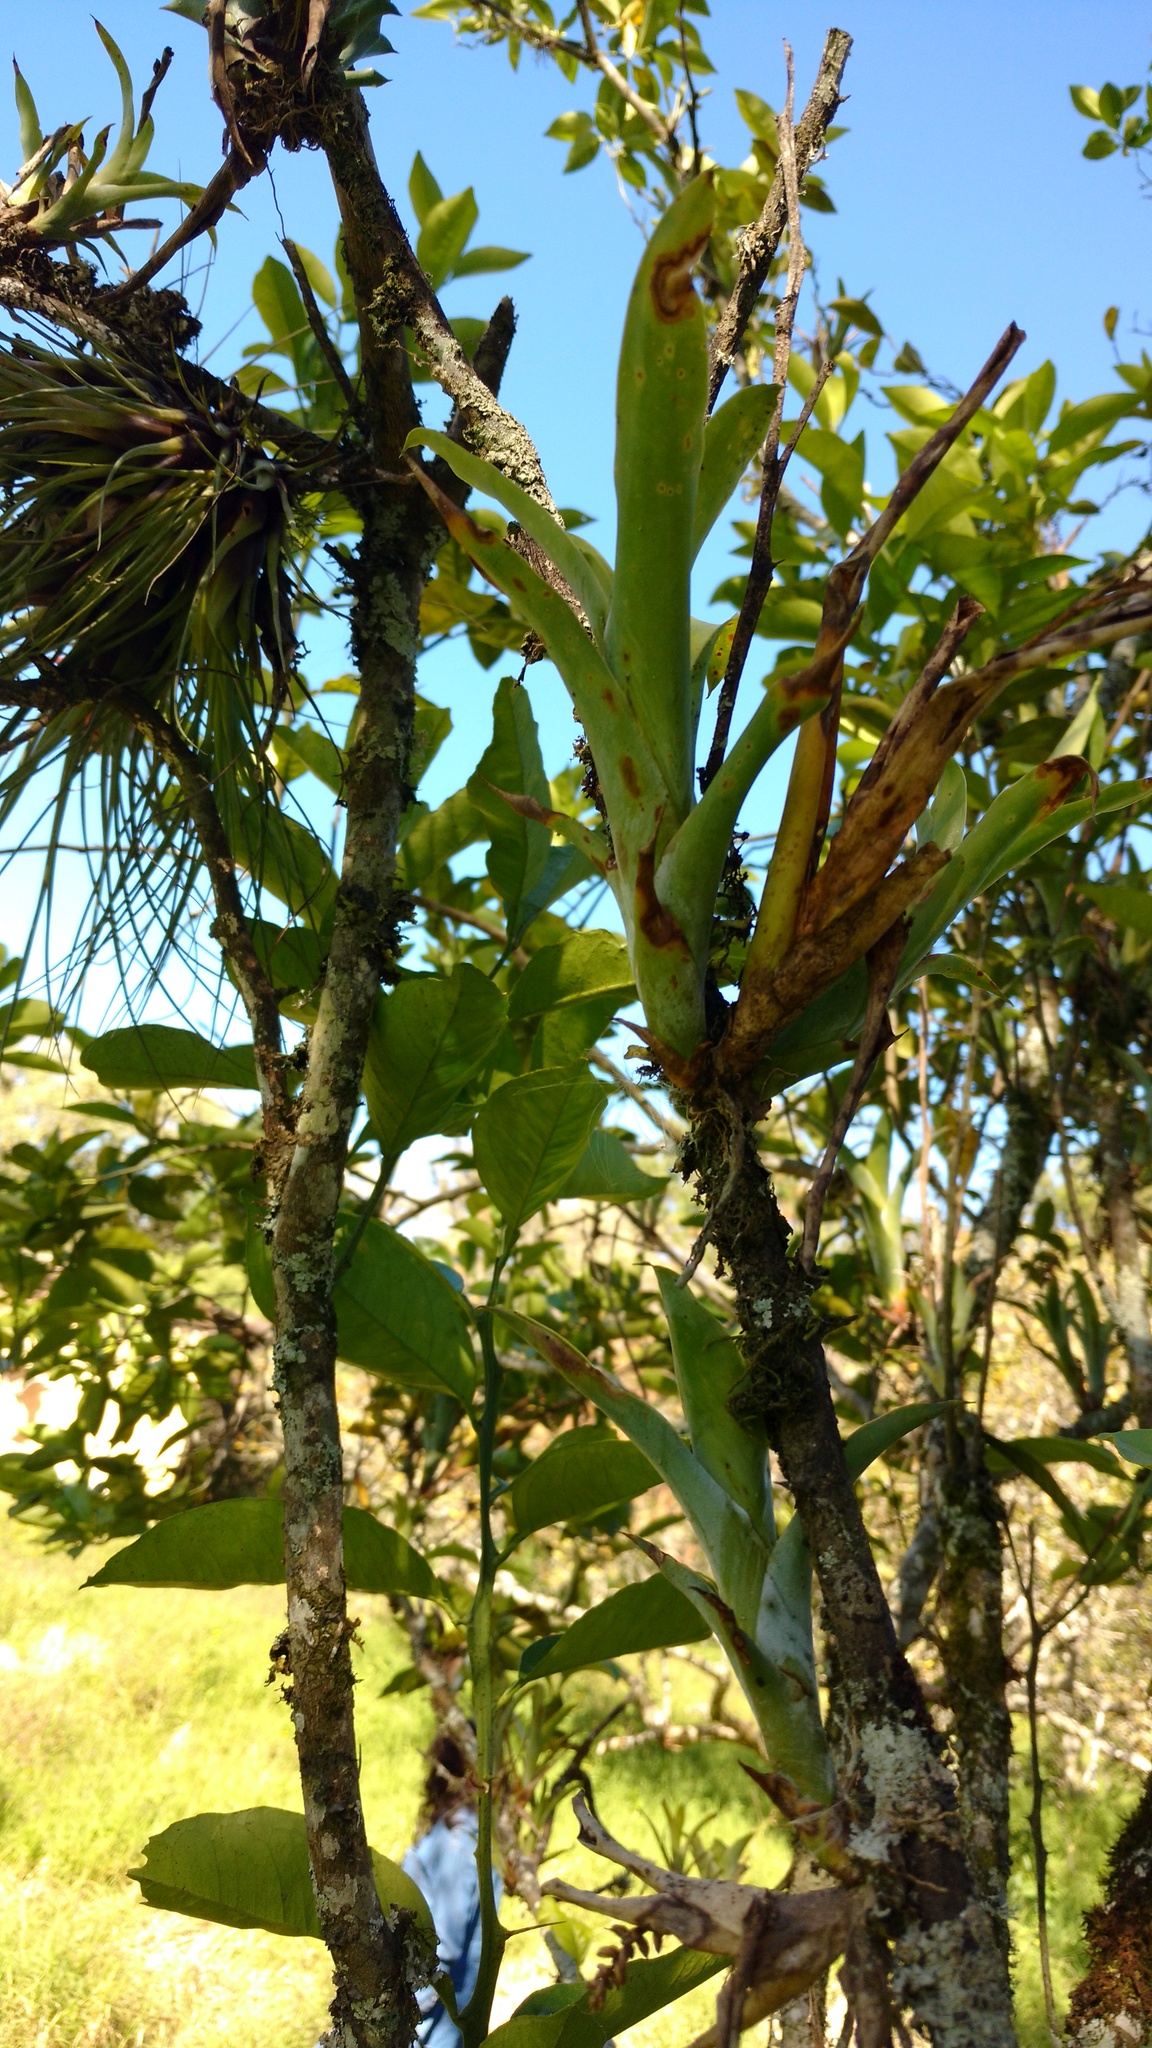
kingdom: Plantae
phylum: Tracheophyta
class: Liliopsida
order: Poales
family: Bromeliaceae
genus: Catopsis
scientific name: Catopsis sessiliflora
